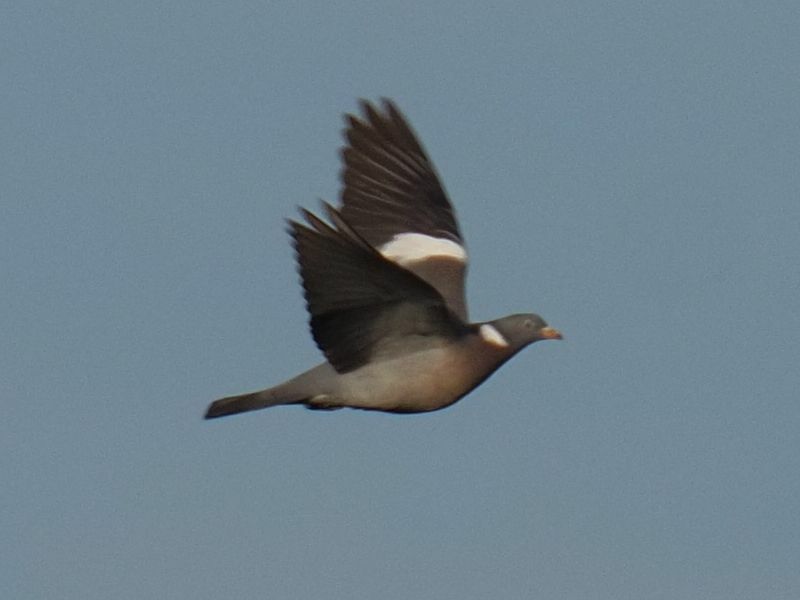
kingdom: Animalia
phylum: Chordata
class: Aves
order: Columbiformes
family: Columbidae
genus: Columba
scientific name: Columba palumbus
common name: Common wood pigeon
